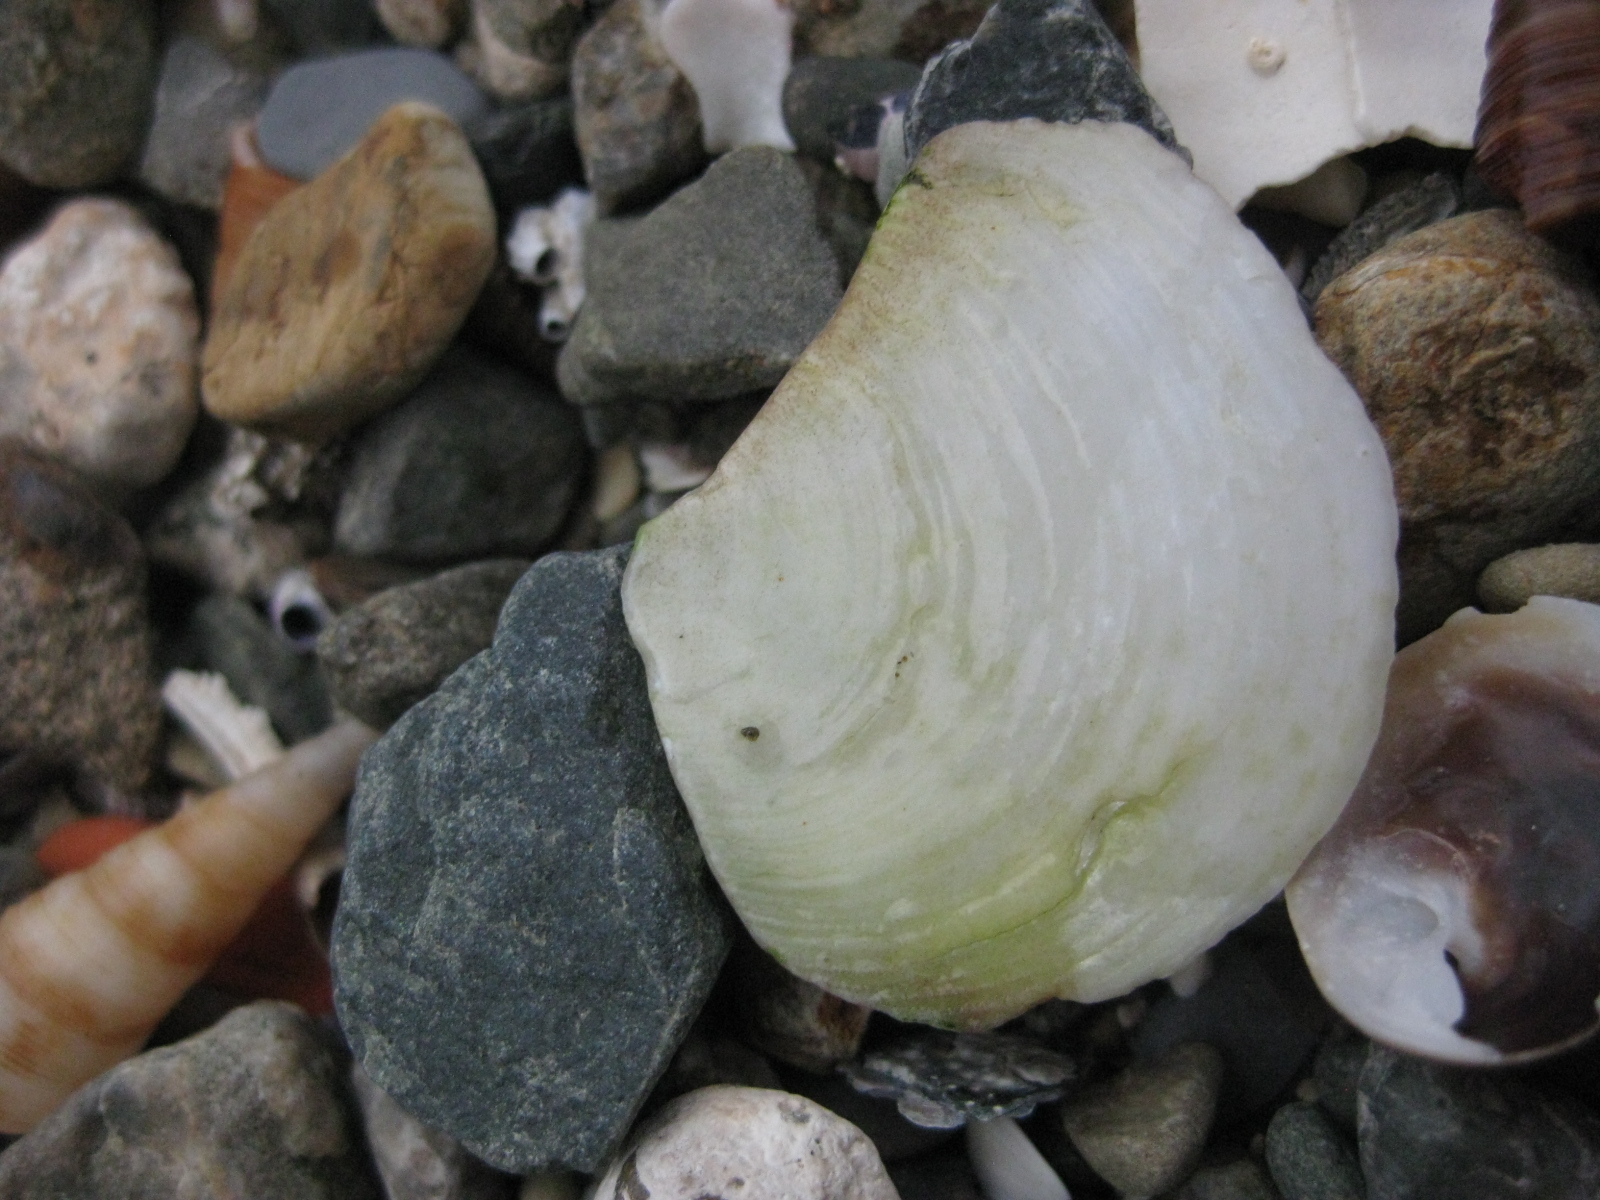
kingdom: Animalia
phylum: Mollusca
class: Bivalvia
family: Myochamidae
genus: Myadora
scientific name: Myadora striata
